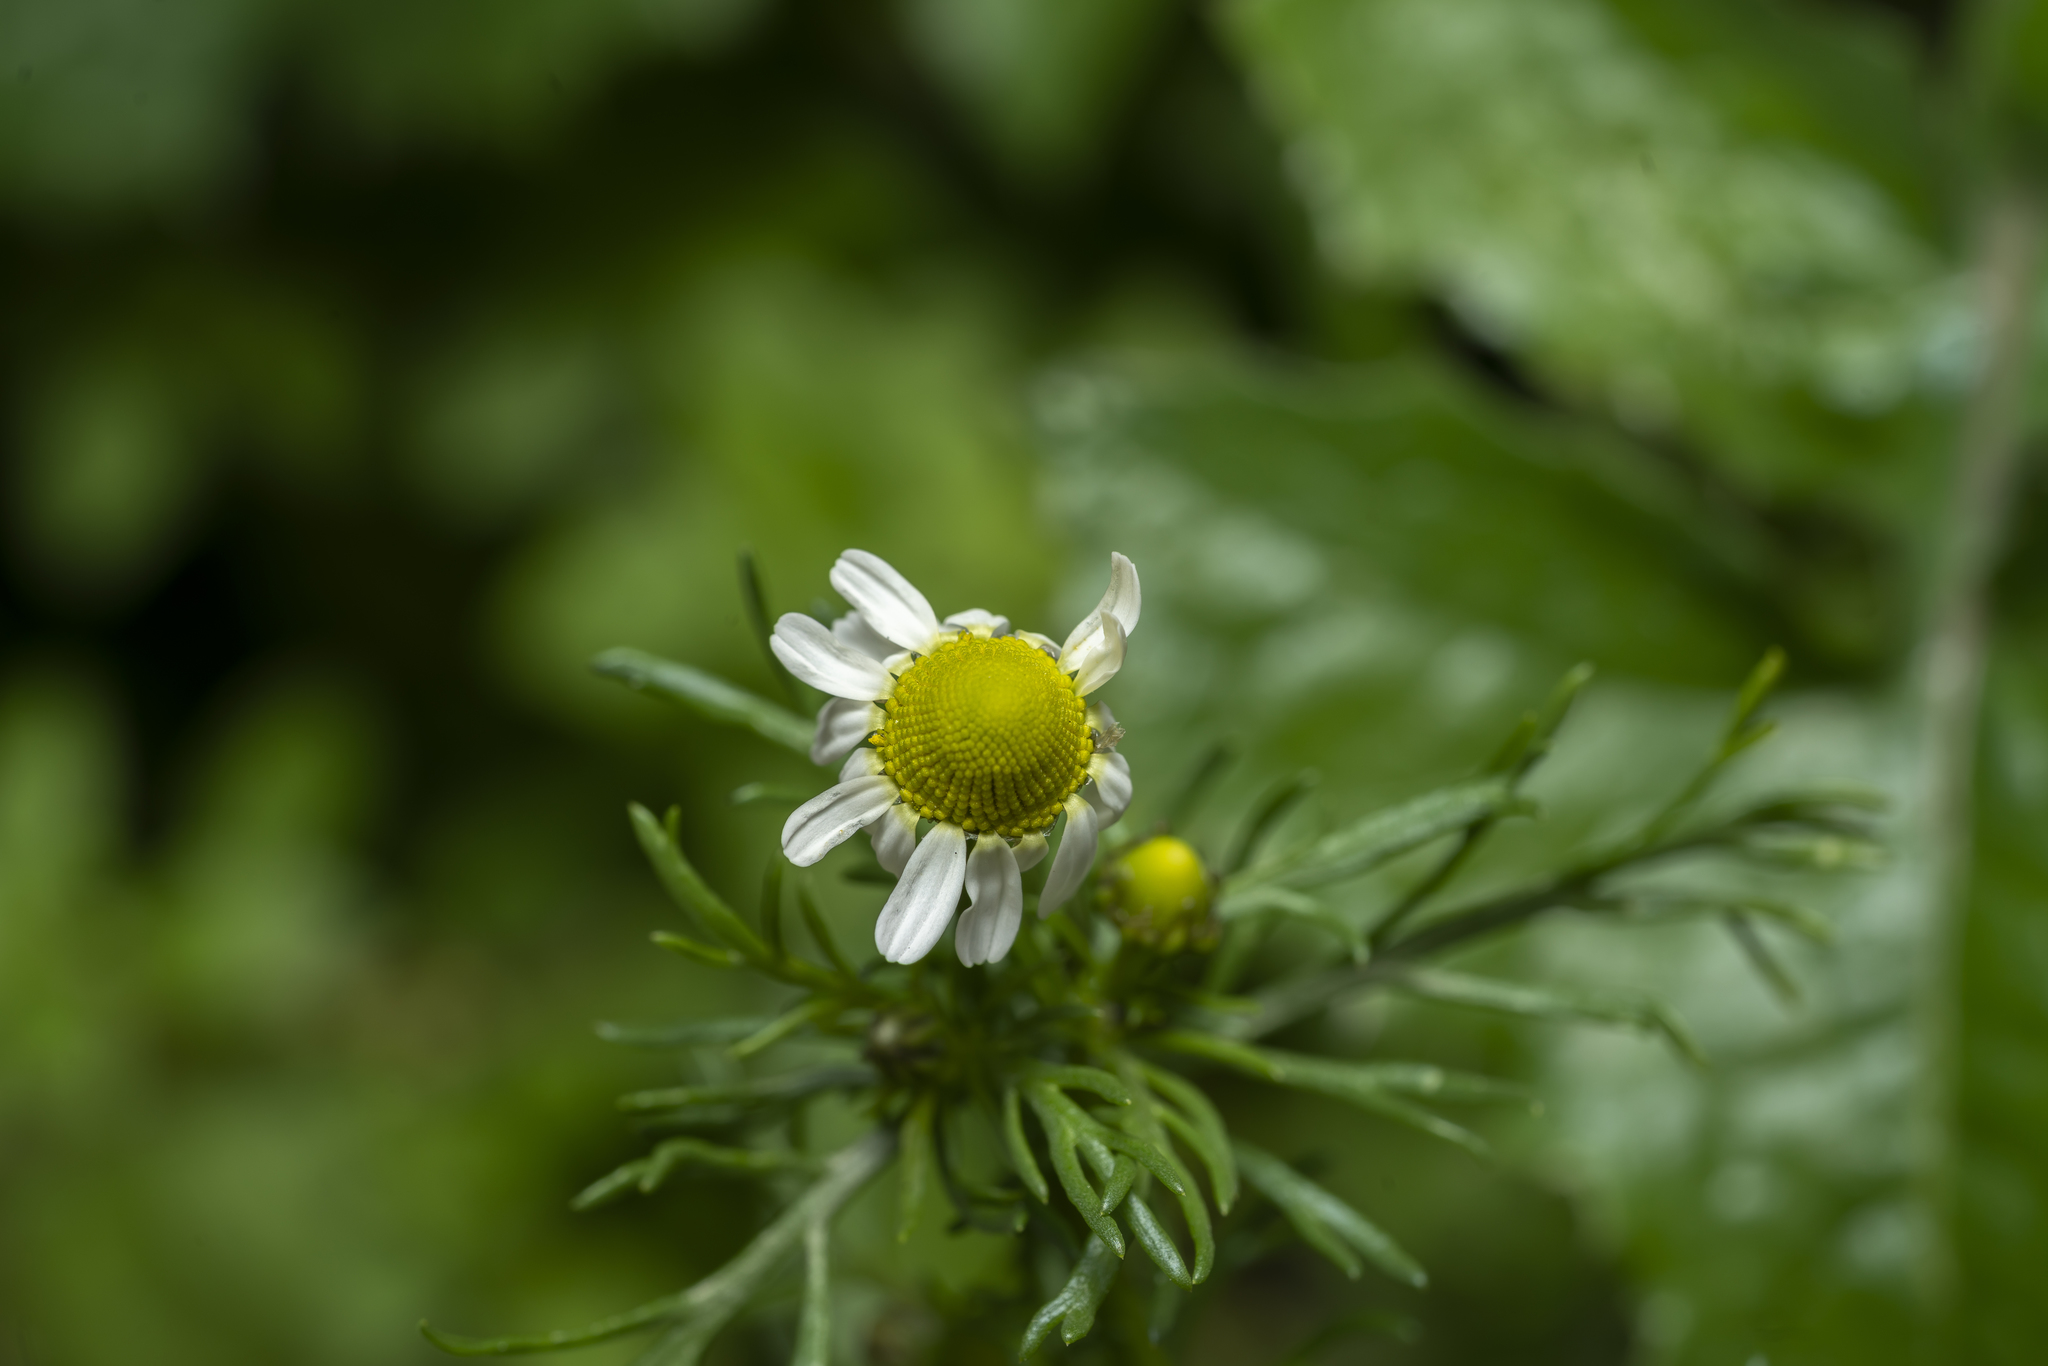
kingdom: Plantae
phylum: Tracheophyta
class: Magnoliopsida
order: Asterales
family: Asteraceae
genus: Matricaria
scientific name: Matricaria chamomilla
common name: Scented mayweed
